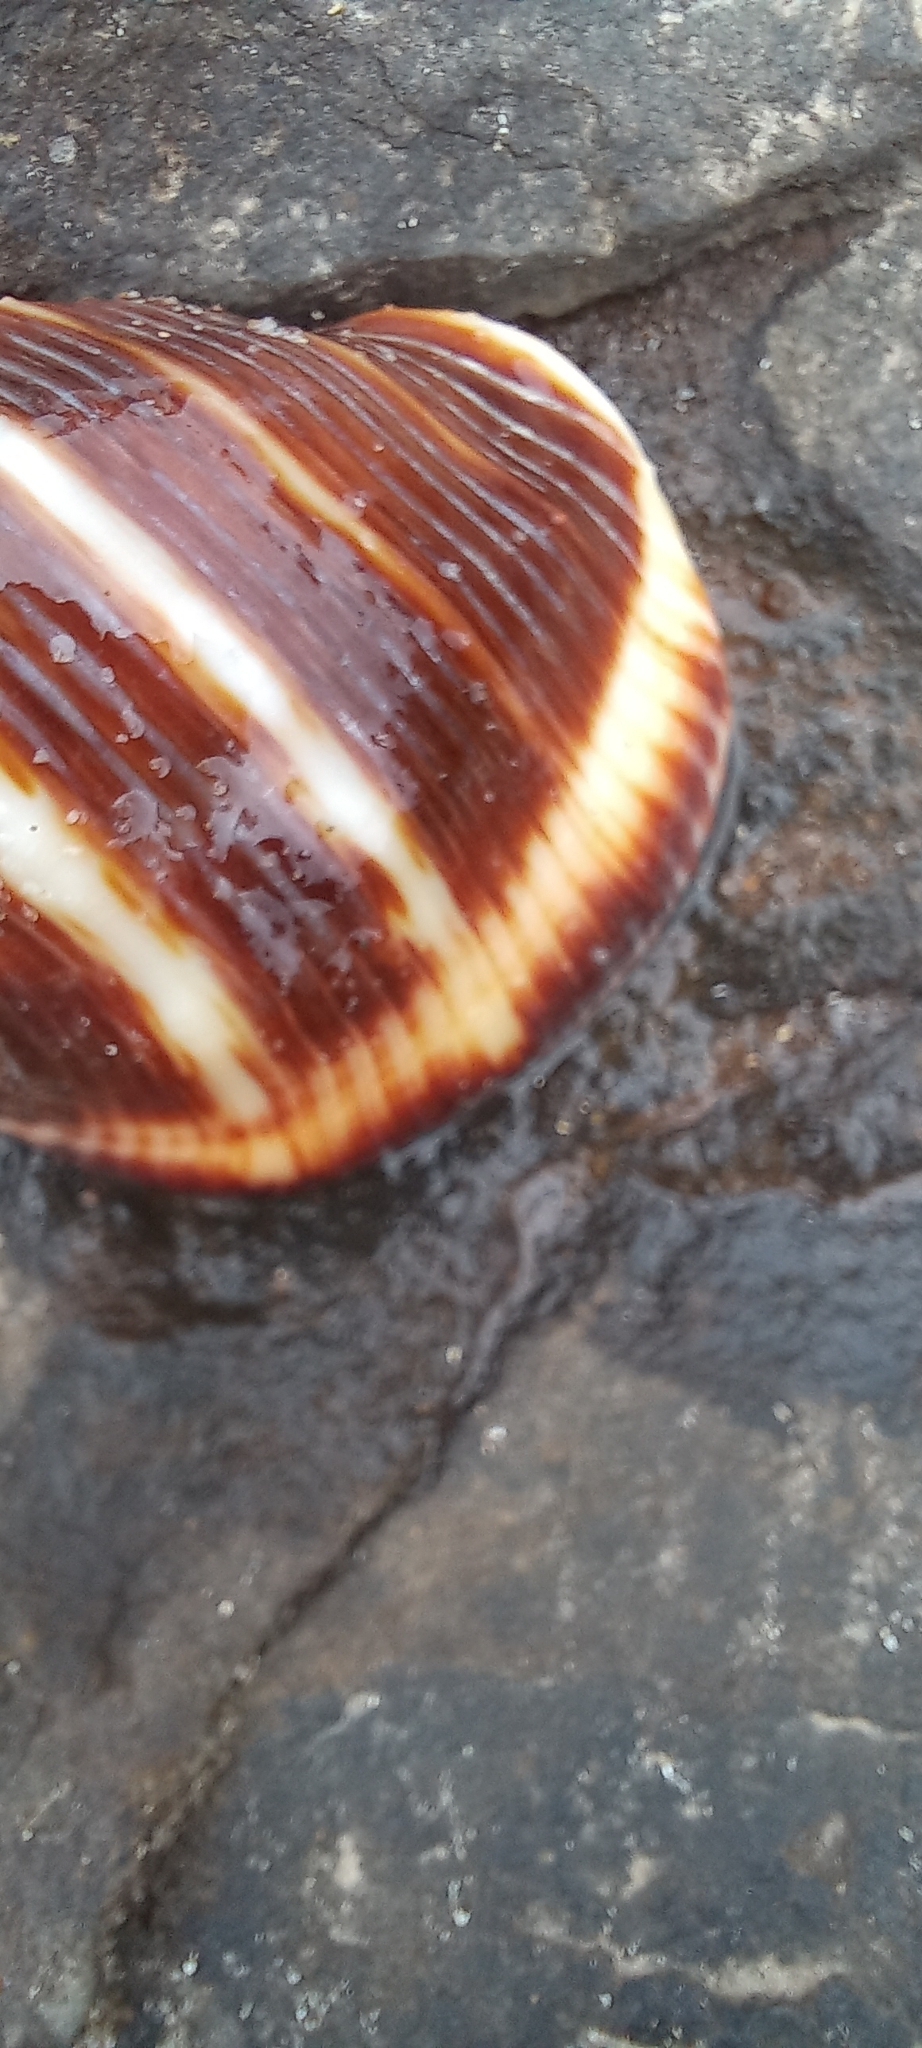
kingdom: Animalia
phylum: Mollusca
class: Gastropoda
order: Neogastropoda
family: Muricidae
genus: Purpura
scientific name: Purpura bufo
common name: Toad purple
